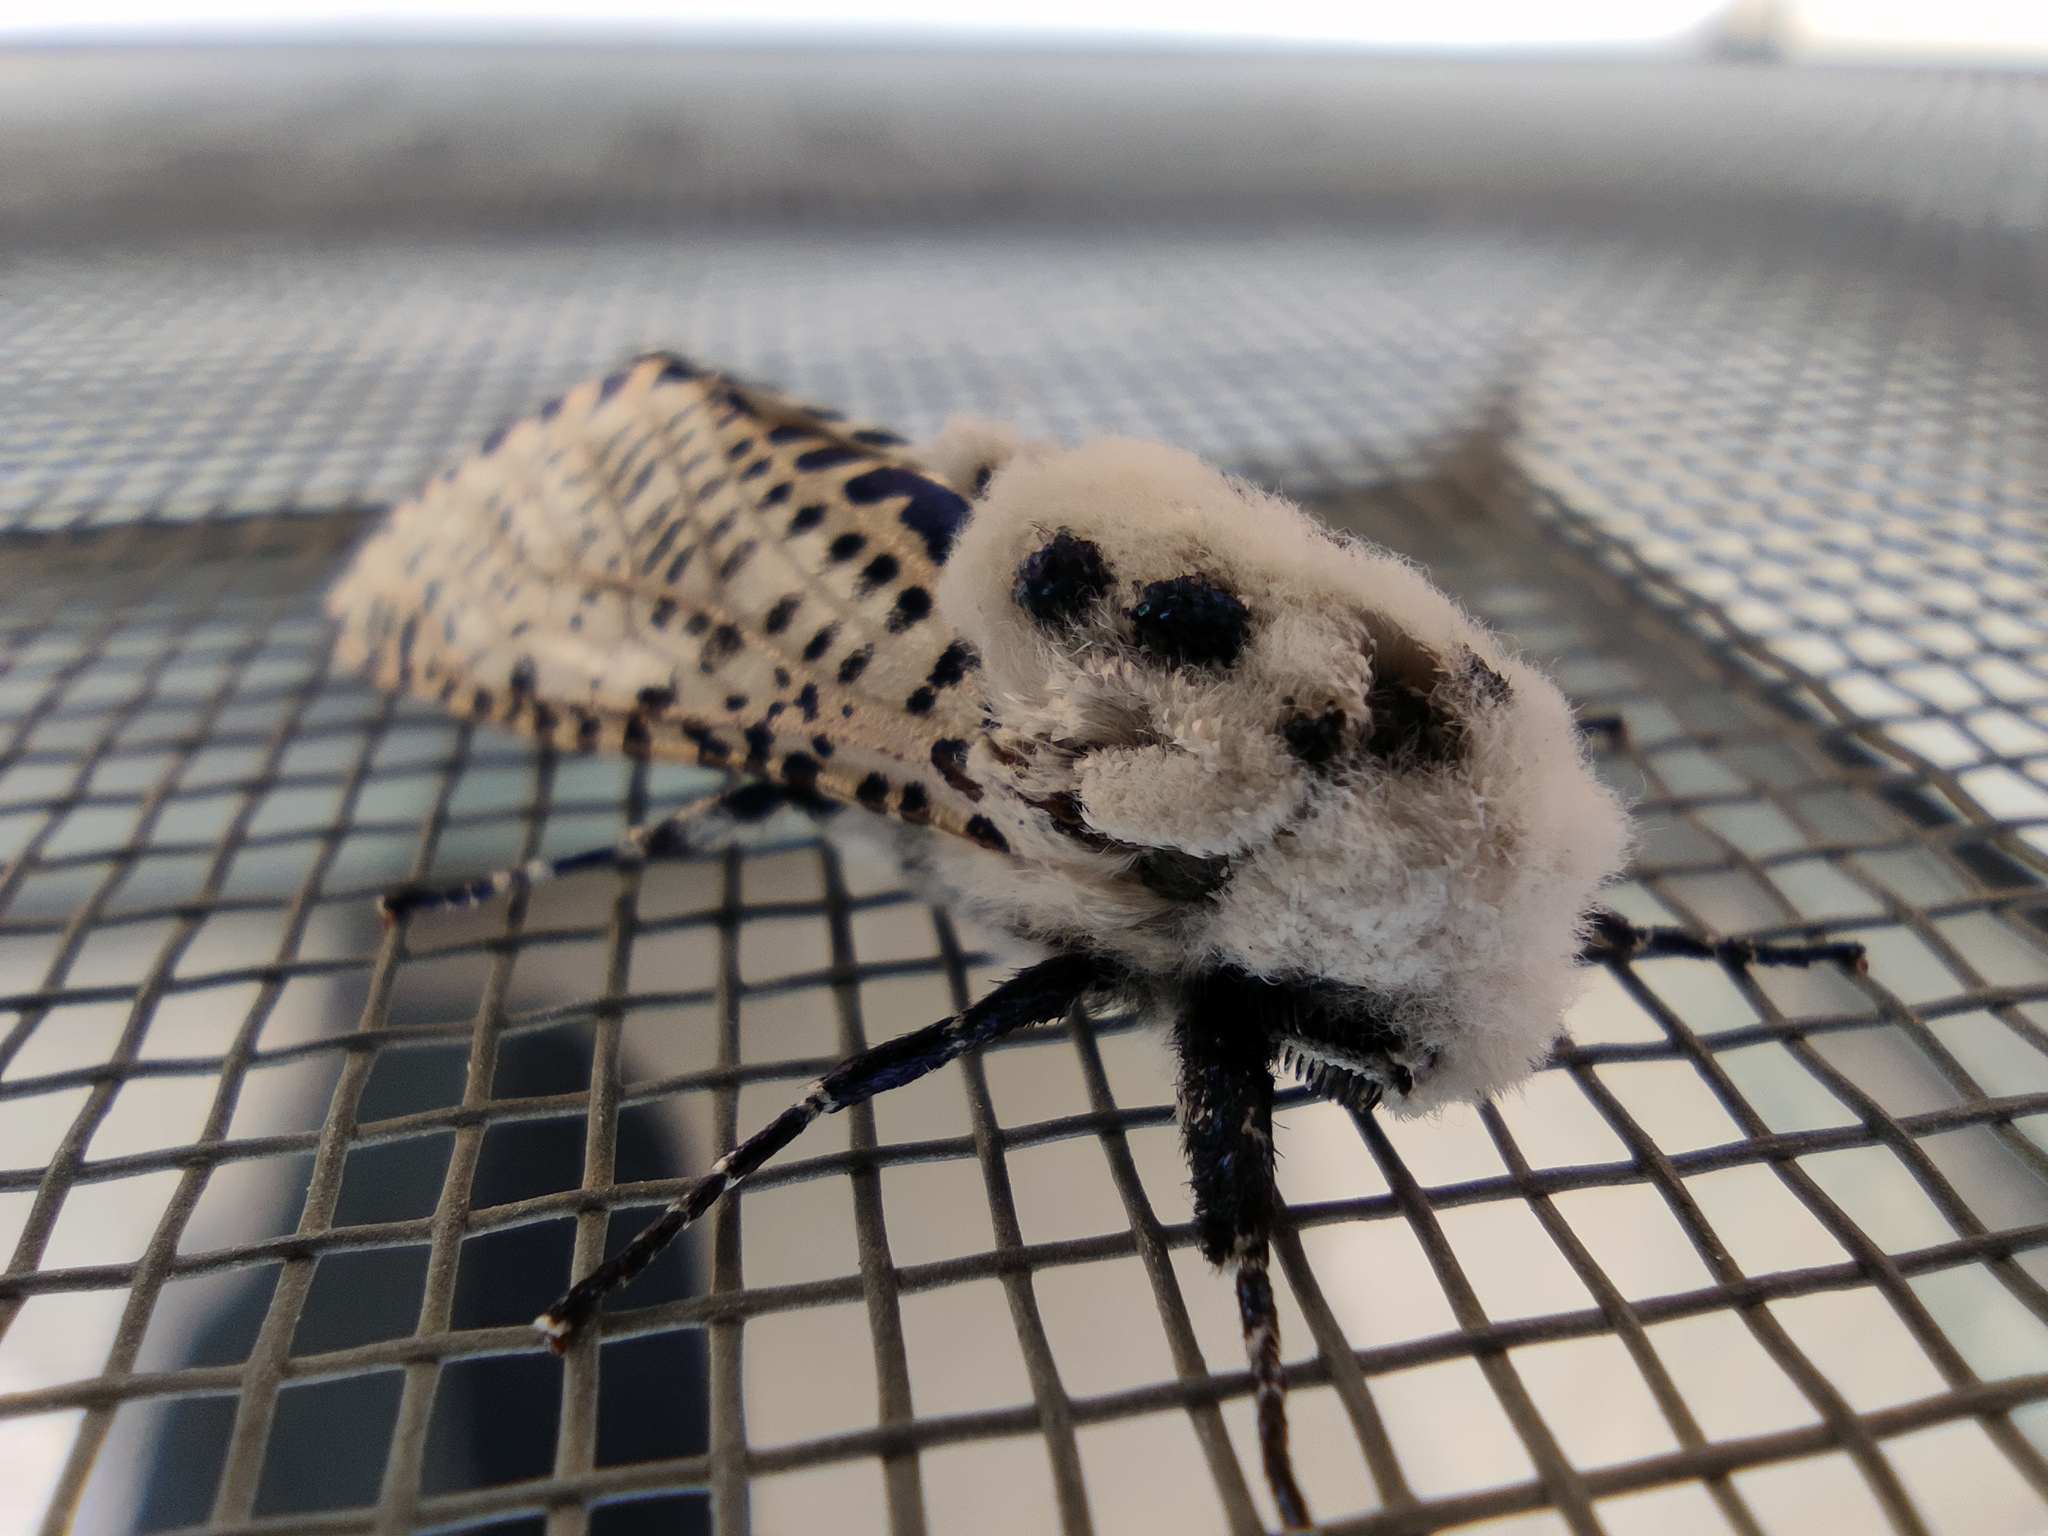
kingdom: Animalia
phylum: Arthropoda
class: Insecta
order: Lepidoptera
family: Cossidae
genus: Zeuzera
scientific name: Zeuzera pyrina
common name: Leopard moth
